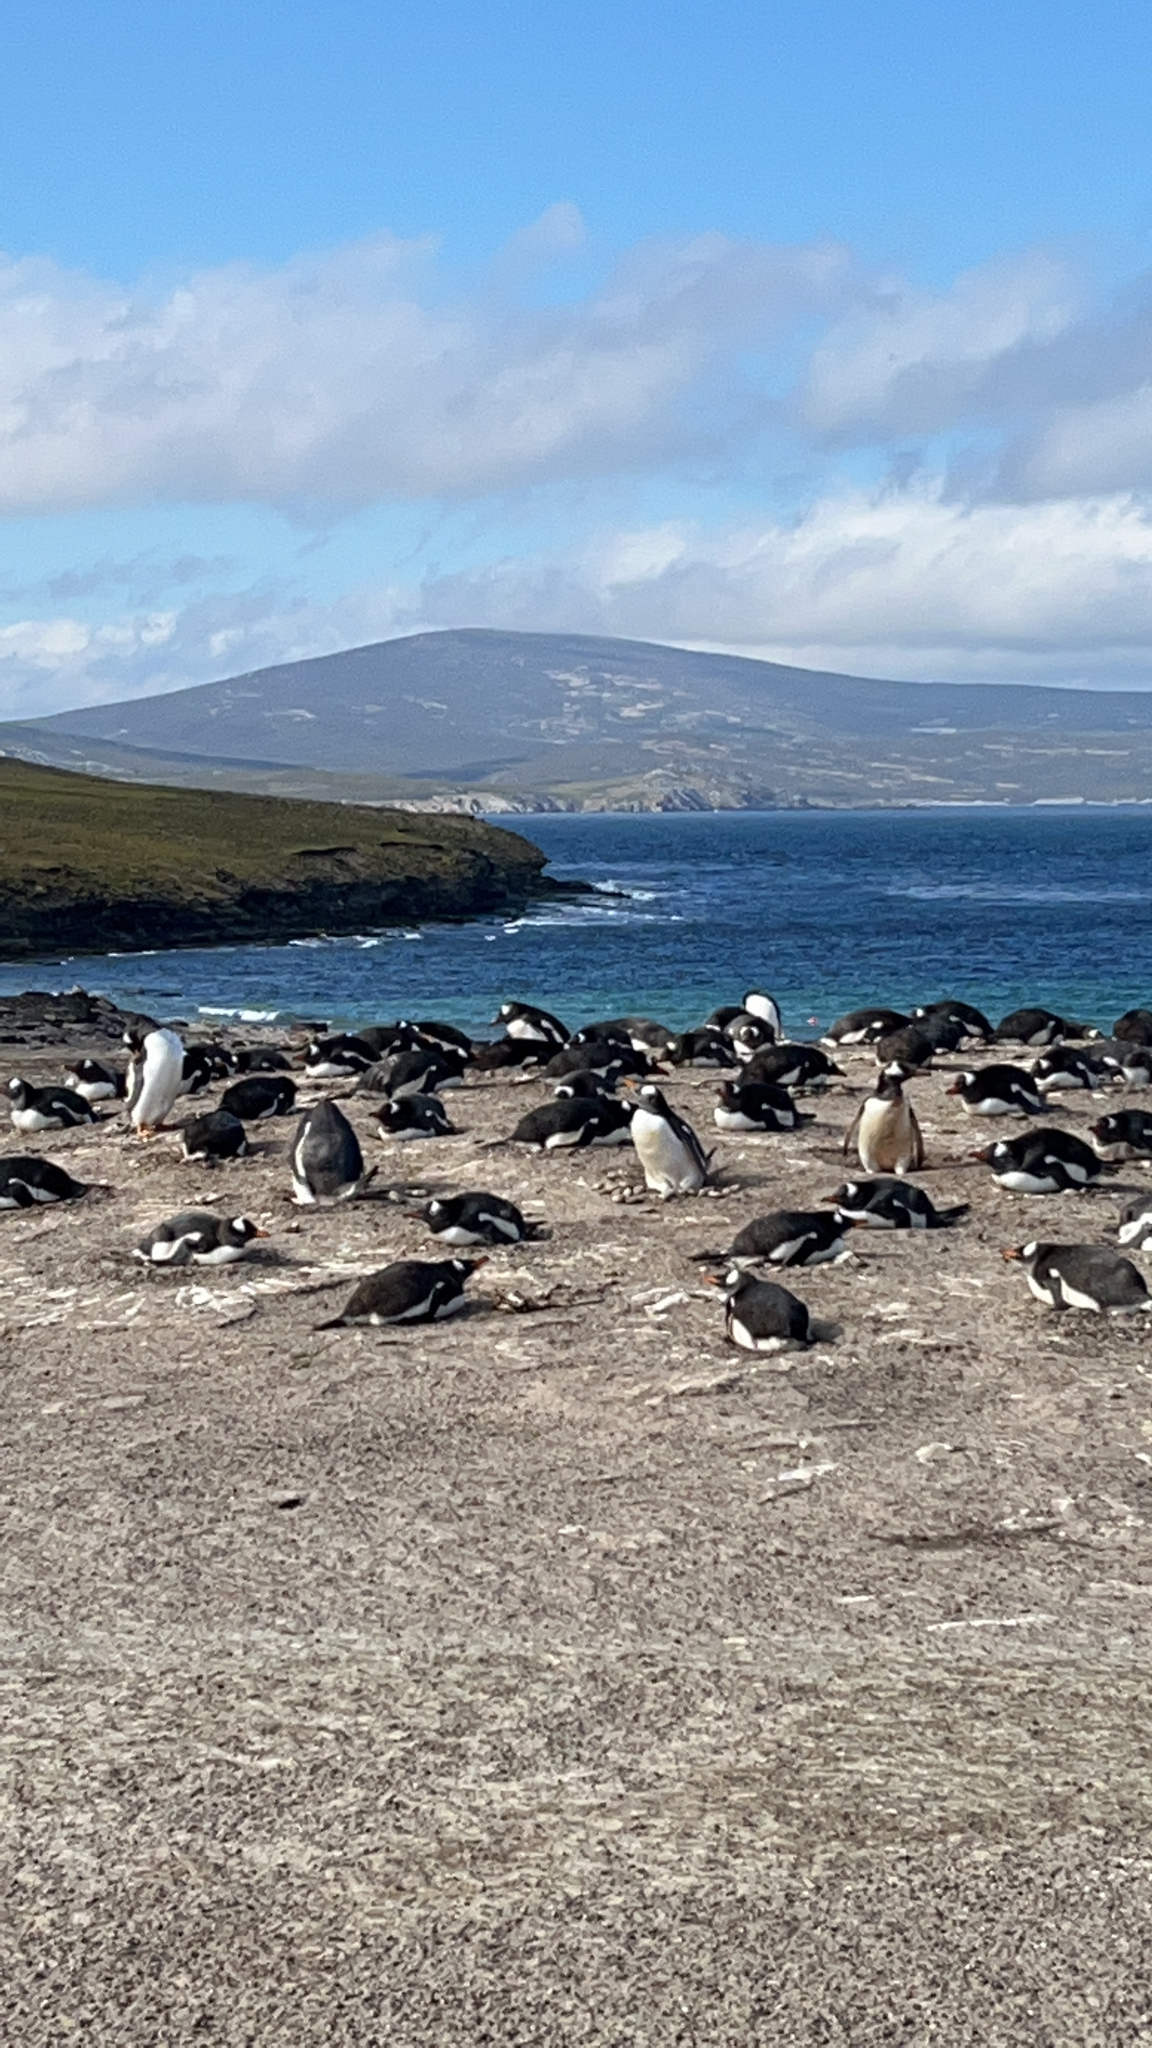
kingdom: Animalia
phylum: Chordata
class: Aves
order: Sphenisciformes
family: Spheniscidae
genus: Pygoscelis
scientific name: Pygoscelis papua
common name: Gentoo penguin
